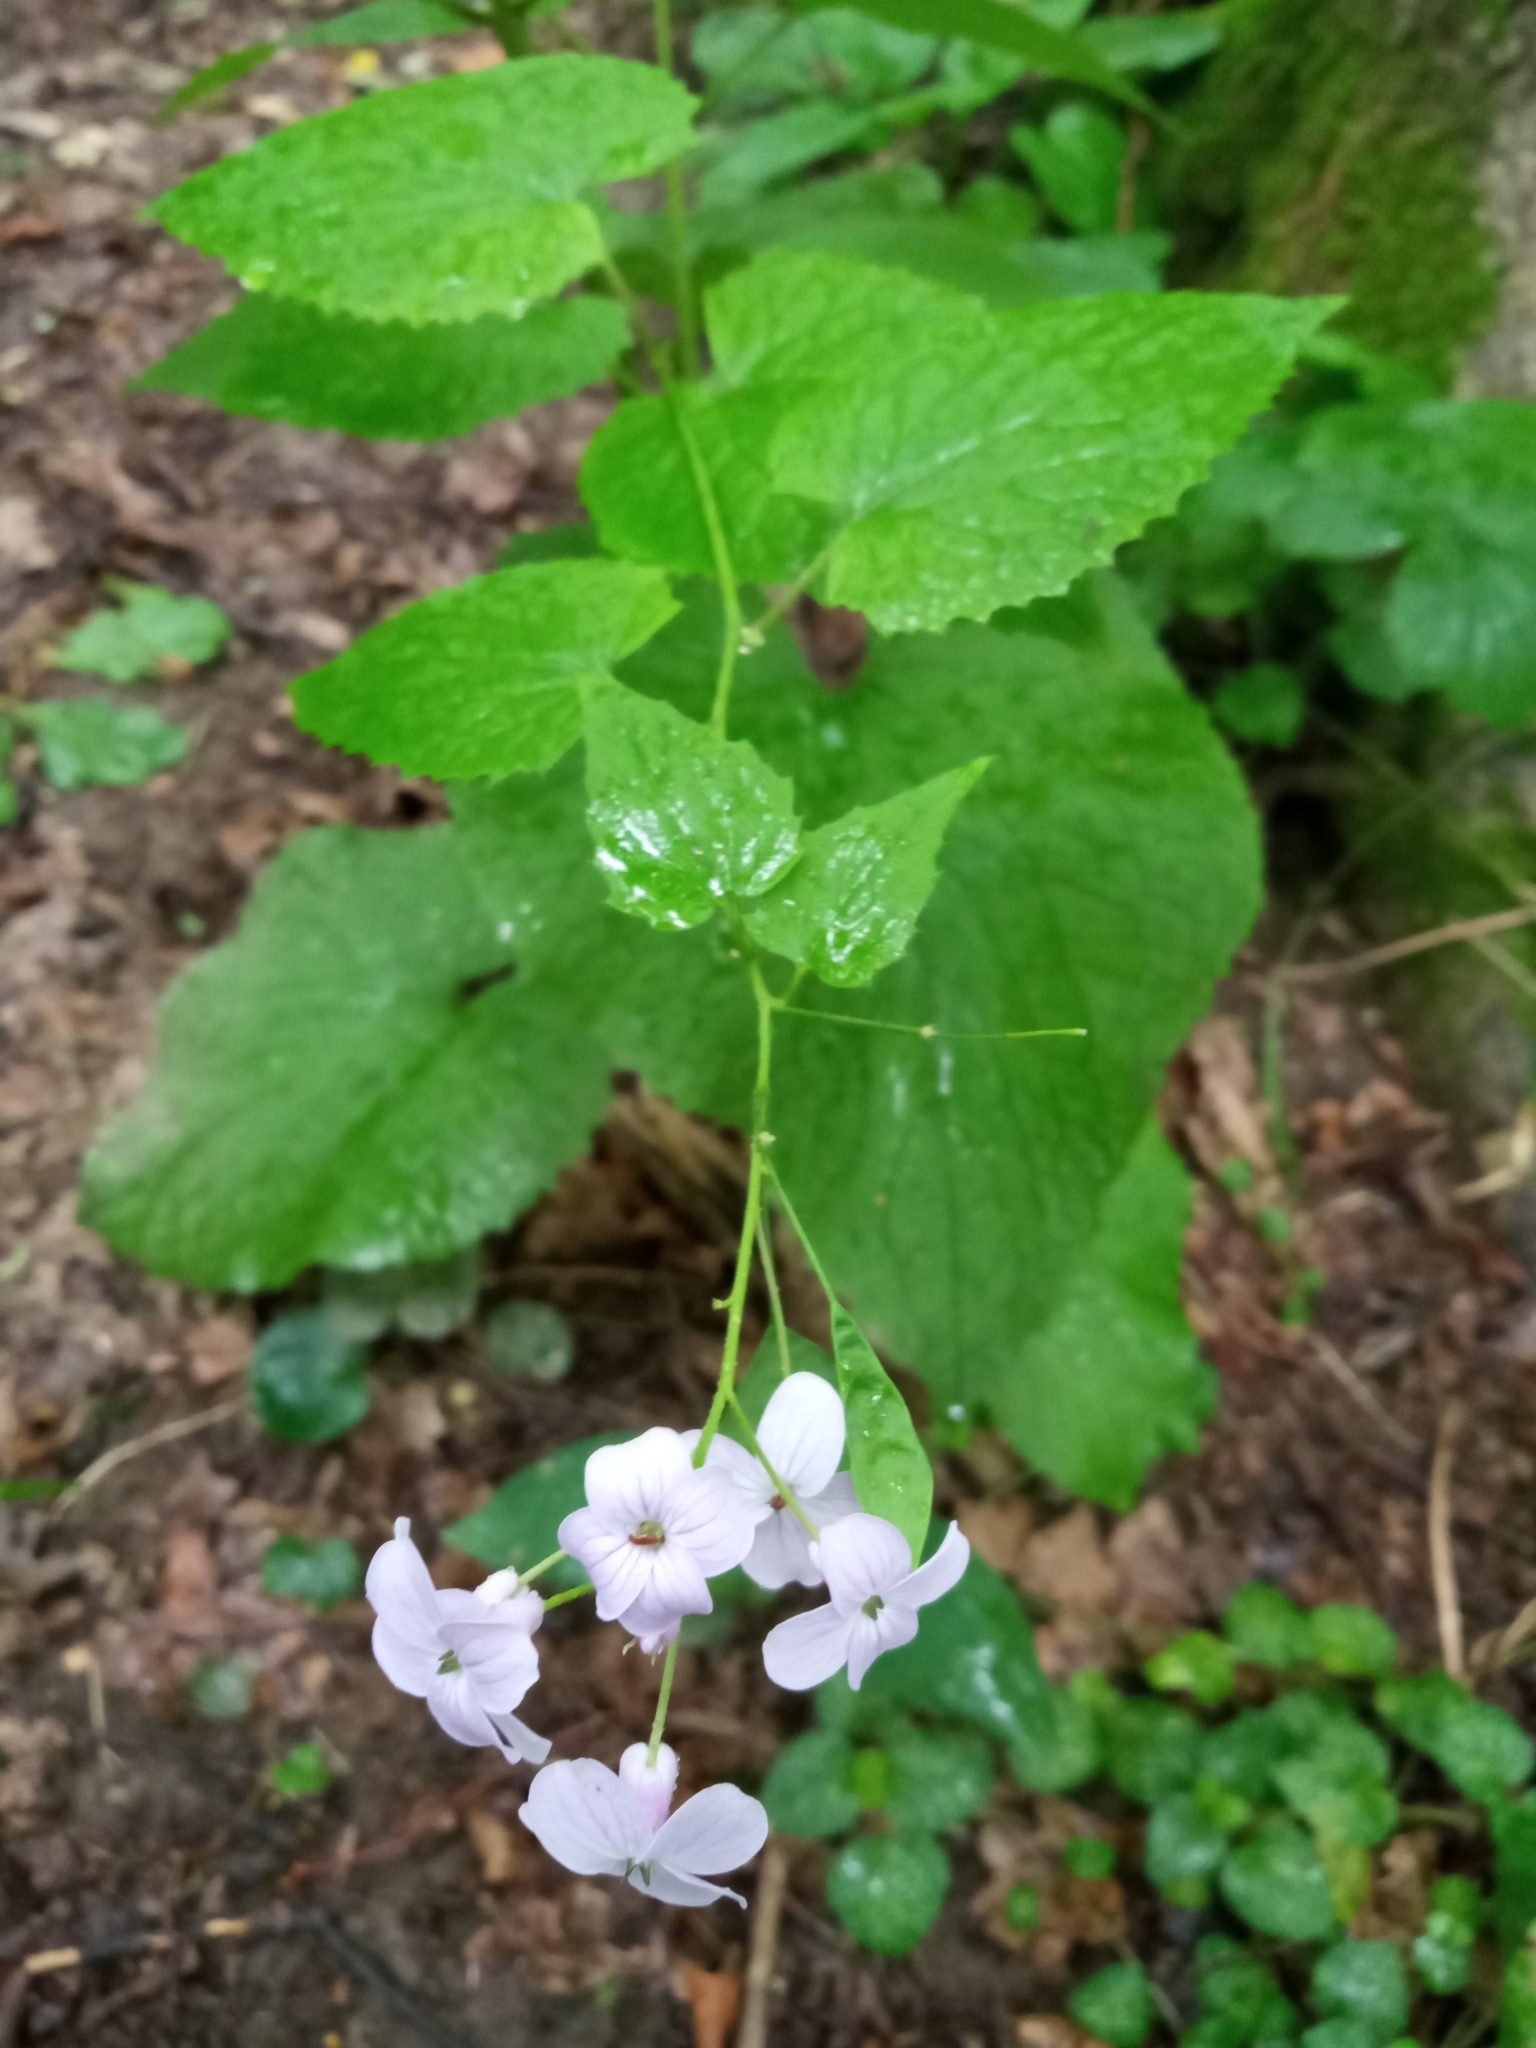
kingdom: Plantae
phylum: Tracheophyta
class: Magnoliopsida
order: Brassicales
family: Brassicaceae
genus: Lunaria
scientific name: Lunaria rediviva
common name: Perennial honesty
